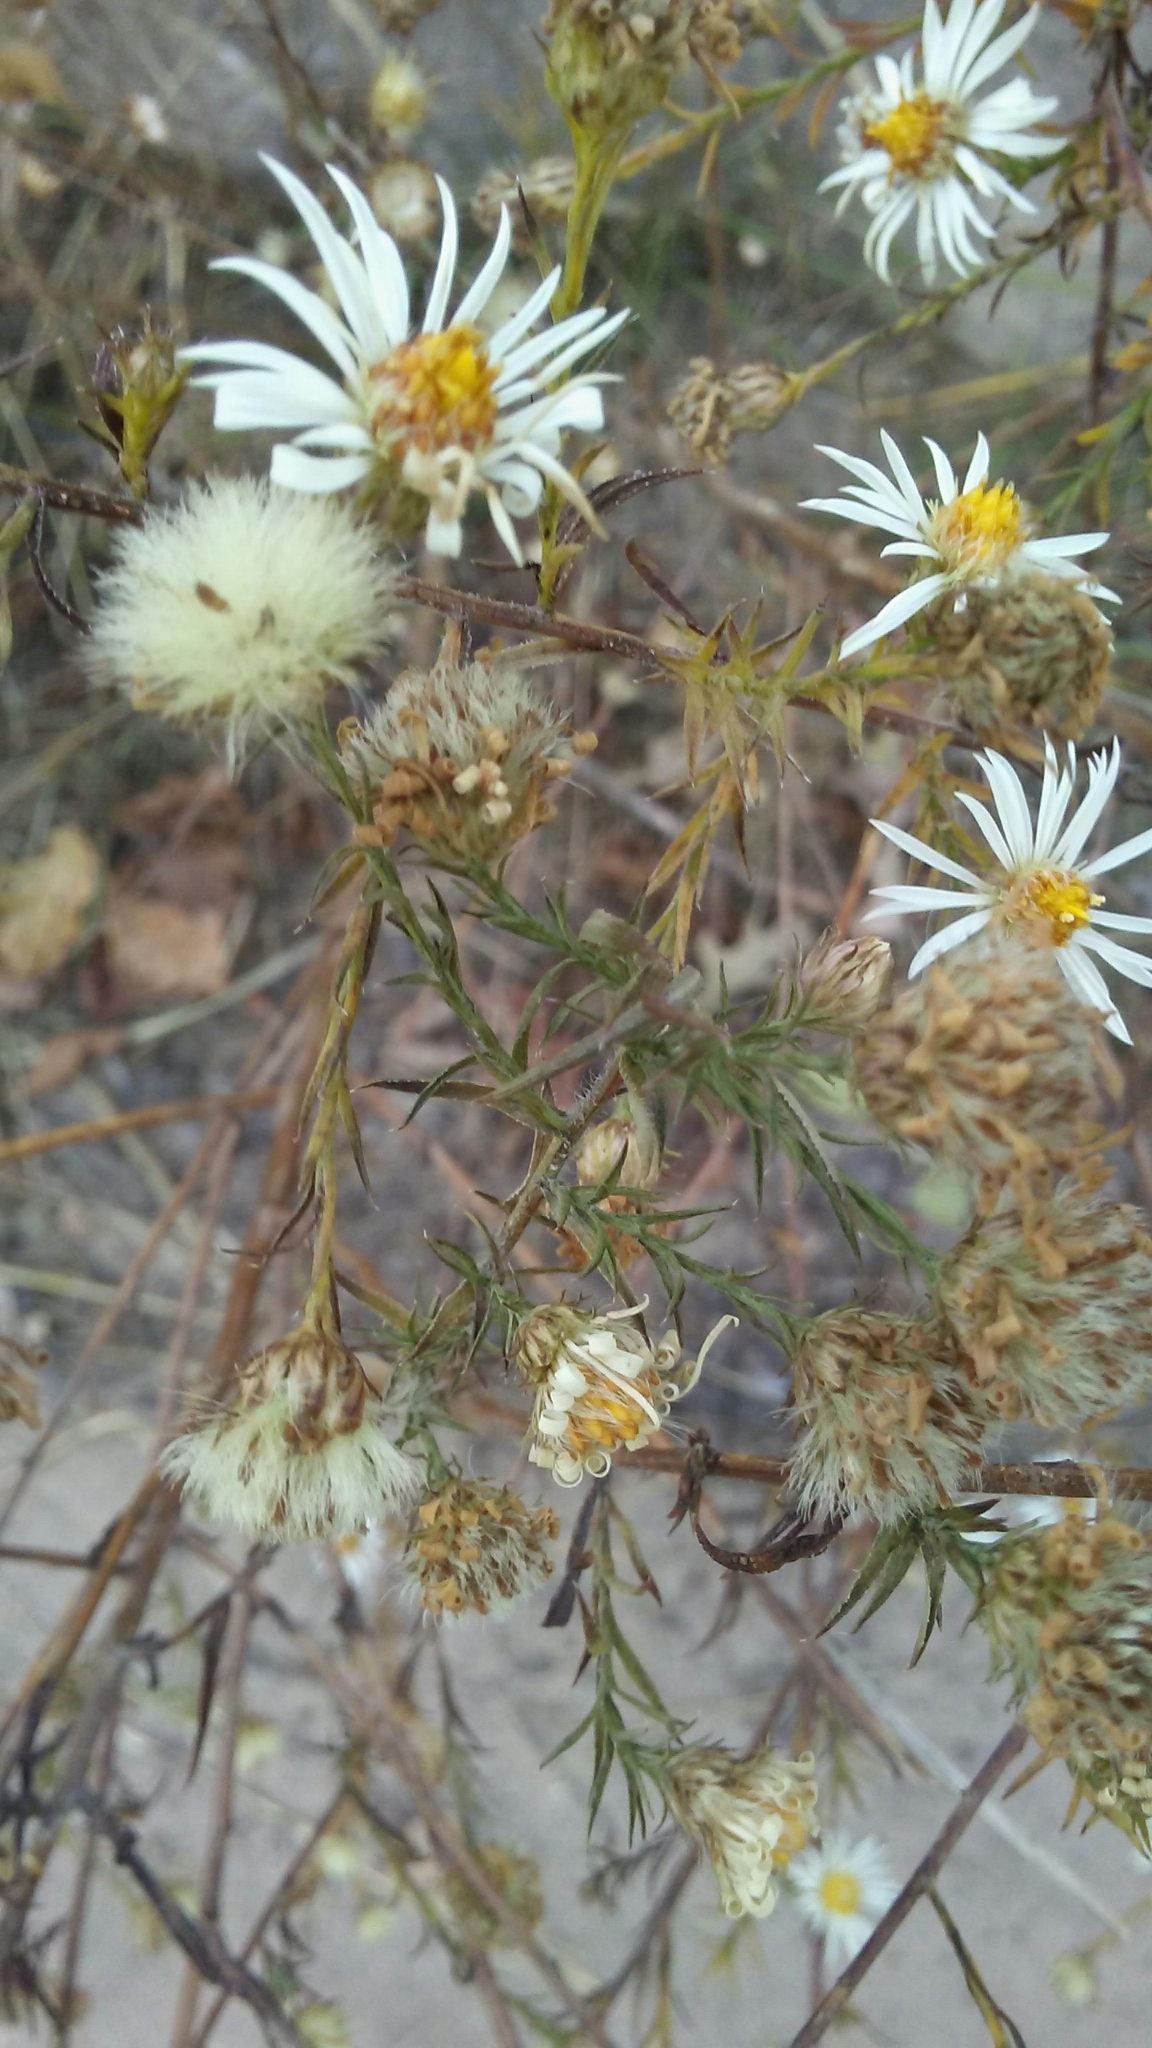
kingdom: Plantae
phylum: Tracheophyta
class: Magnoliopsida
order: Asterales
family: Asteraceae
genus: Symphyotrichum
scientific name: Symphyotrichum pilosum
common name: Awl aster
